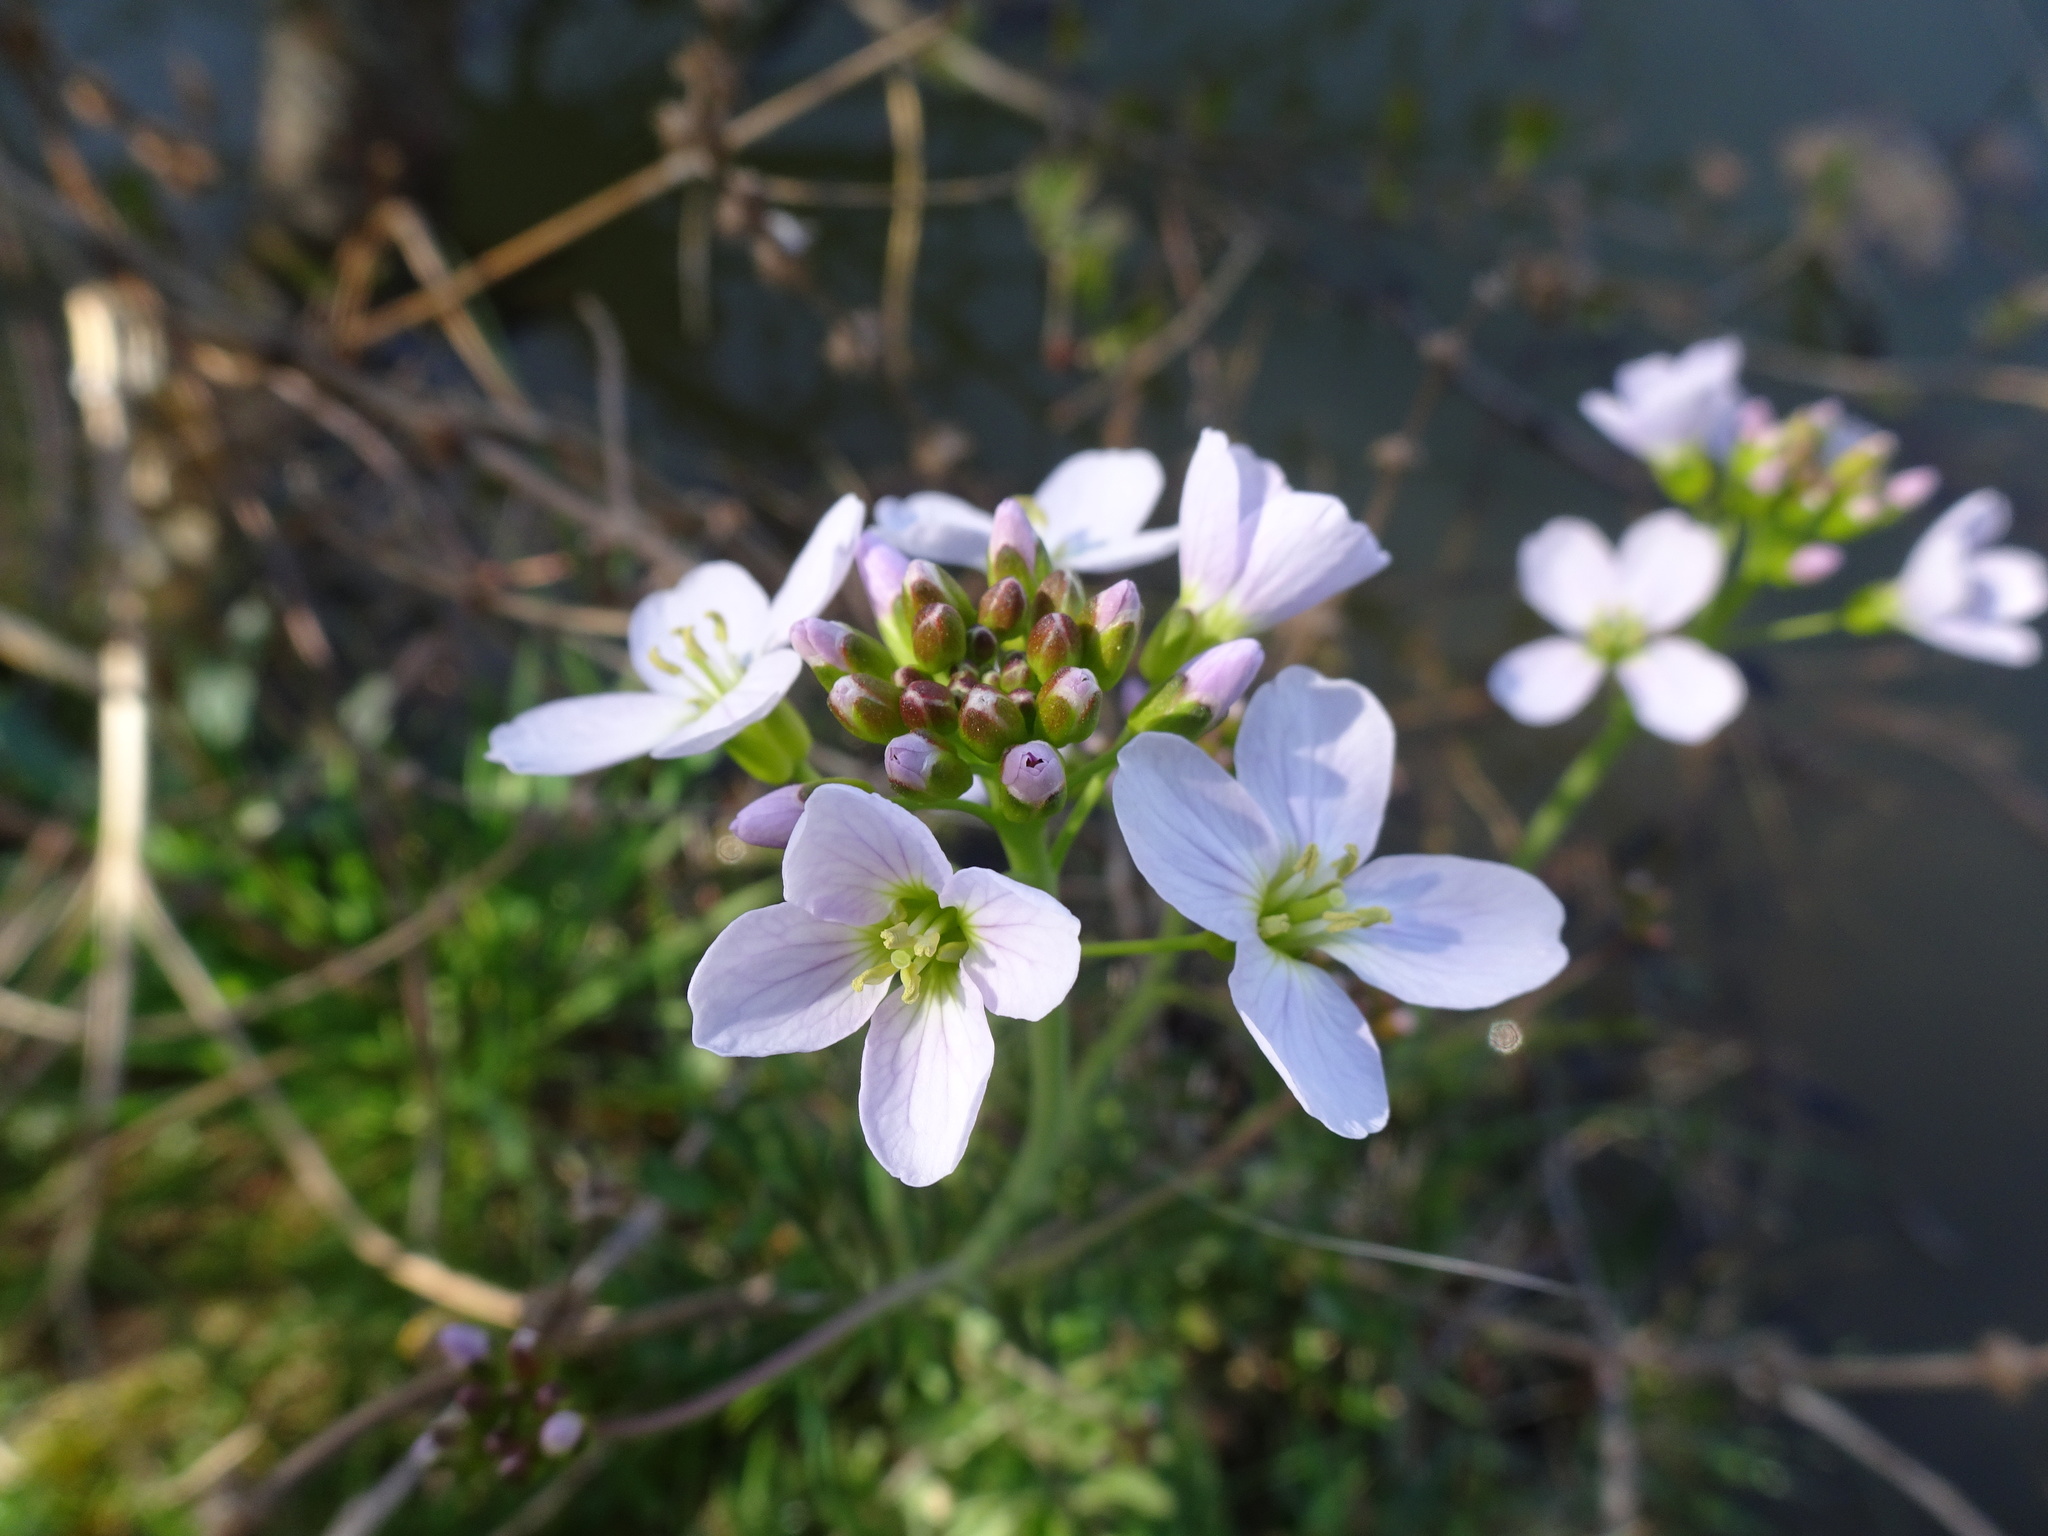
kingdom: Plantae
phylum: Tracheophyta
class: Magnoliopsida
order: Brassicales
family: Brassicaceae
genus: Cardamine
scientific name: Cardamine pratensis
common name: Cuckoo flower
